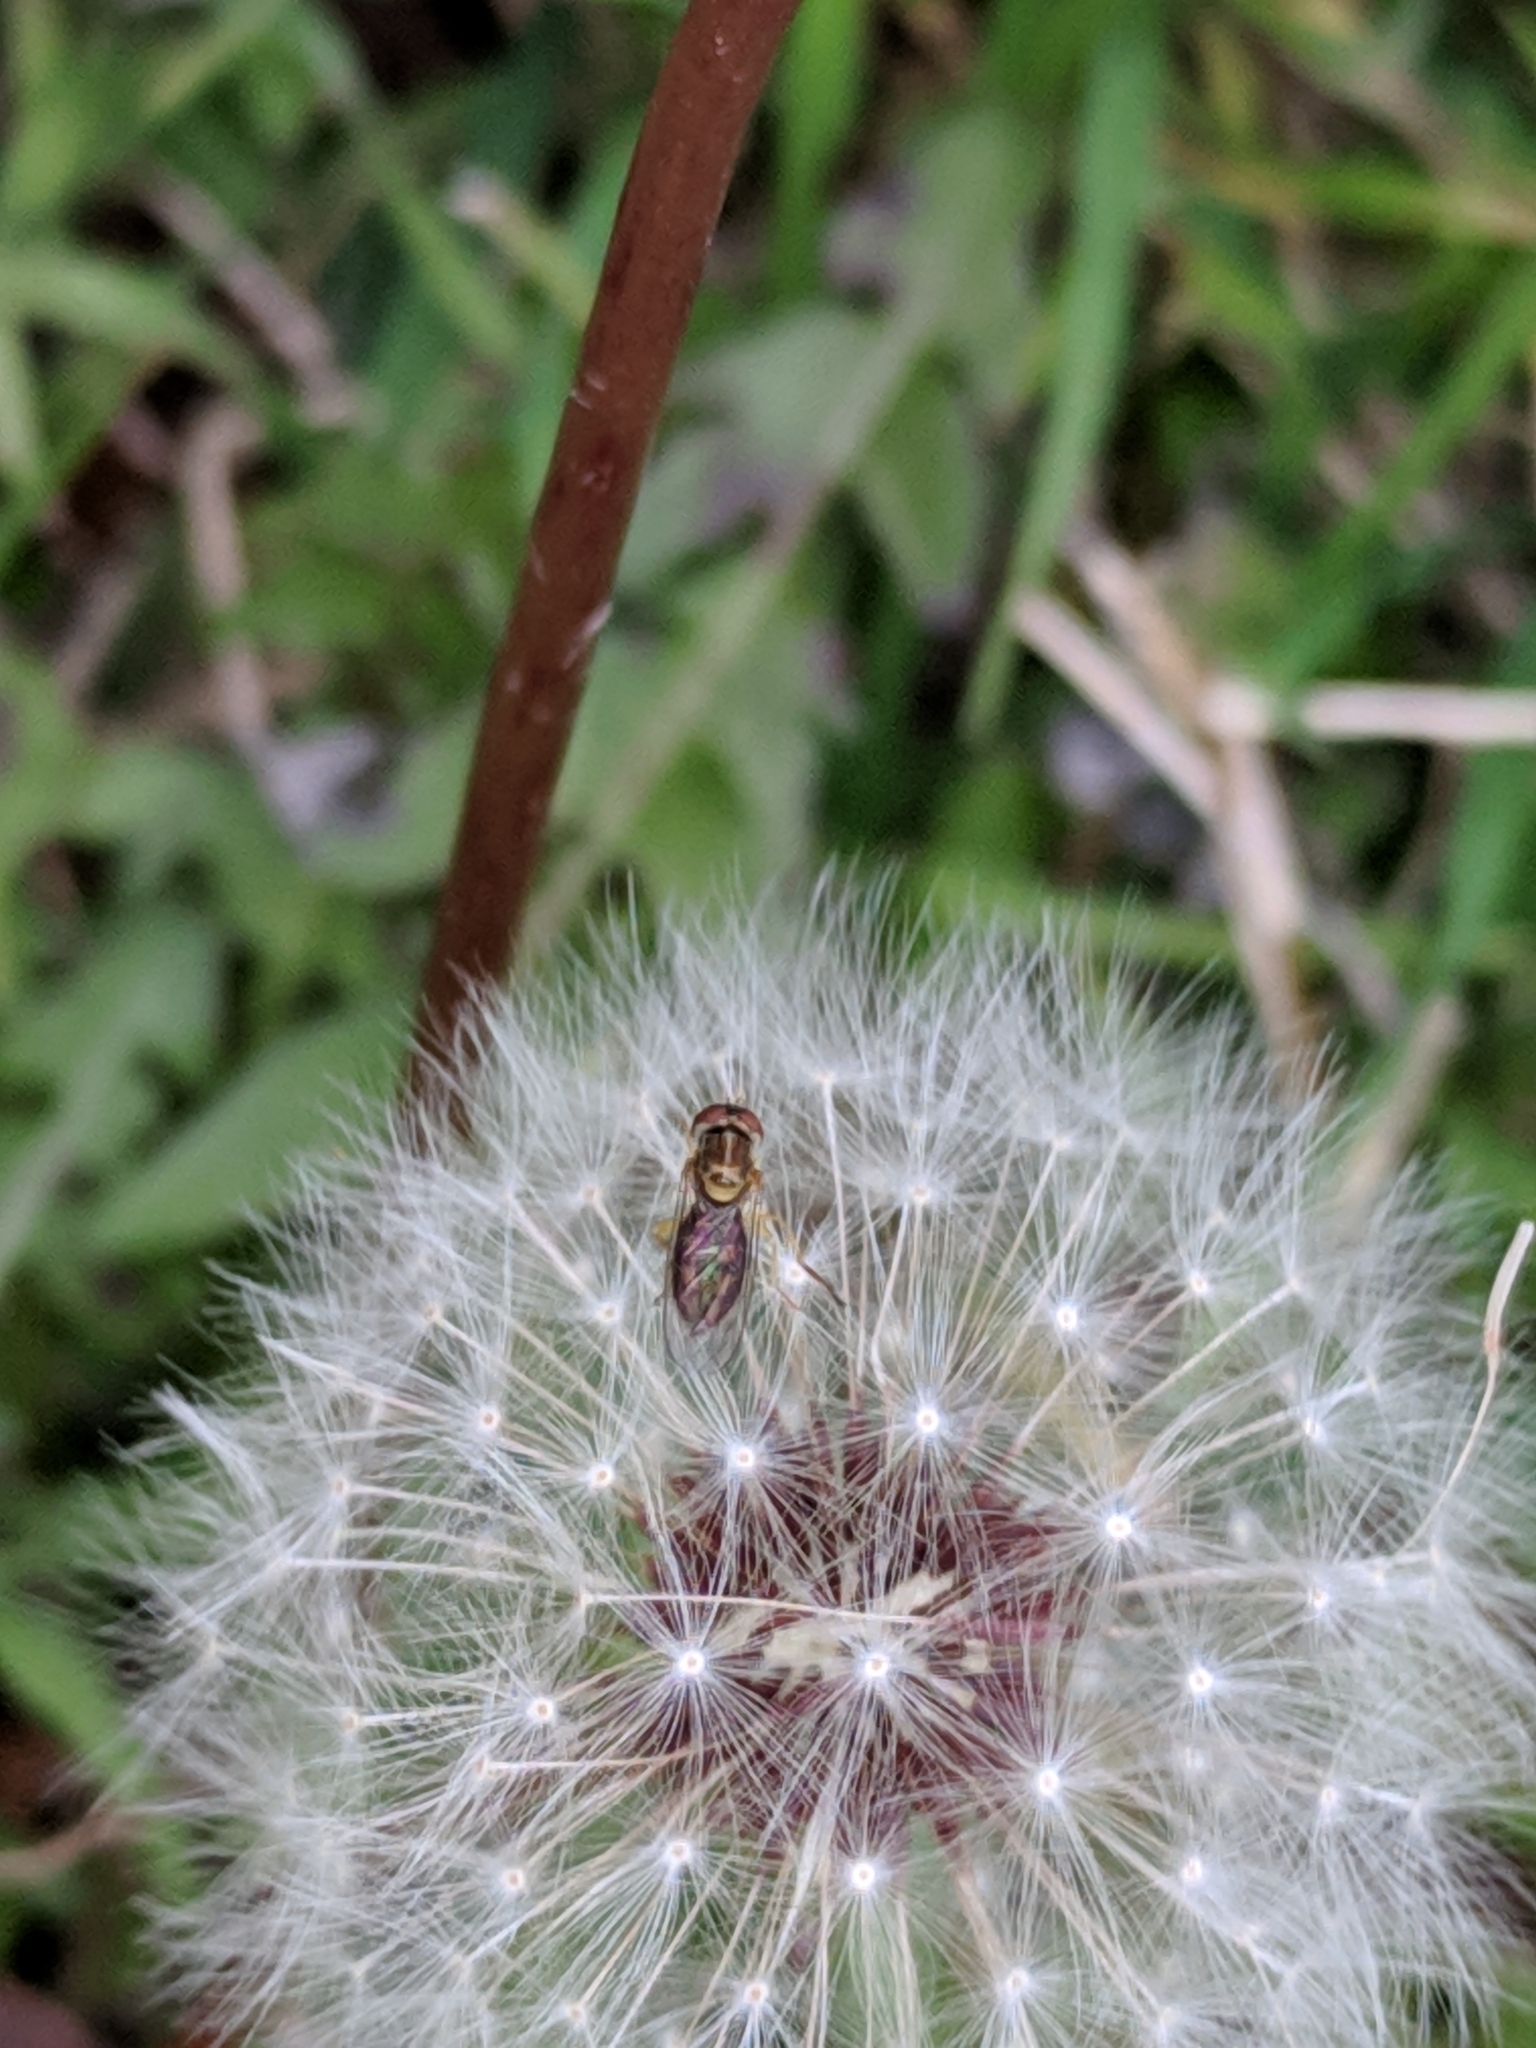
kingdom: Animalia
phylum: Arthropoda
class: Insecta
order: Diptera
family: Syrphidae
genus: Toxomerus
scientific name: Toxomerus marginatus
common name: Syrphid fly
